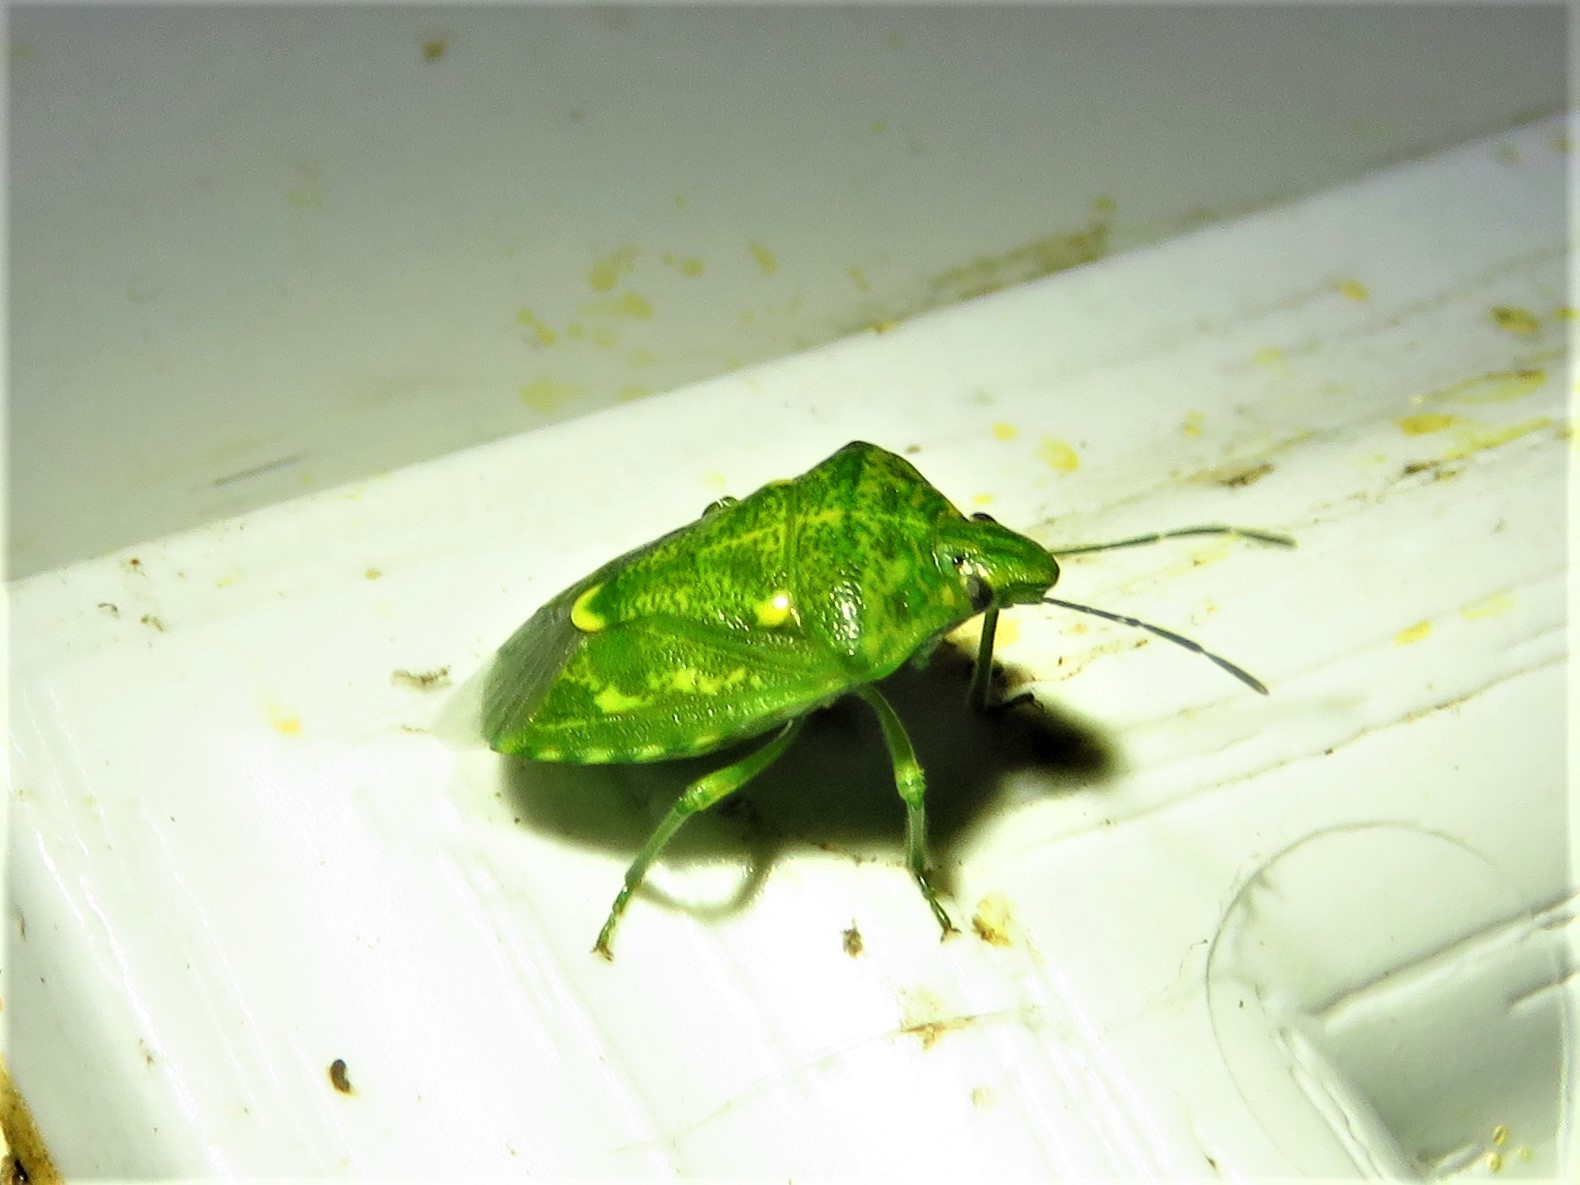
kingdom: Animalia
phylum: Arthropoda
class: Insecta
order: Hemiptera
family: Pentatomidae
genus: Banasa
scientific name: Banasa euchlora
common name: Cedar berry bug
